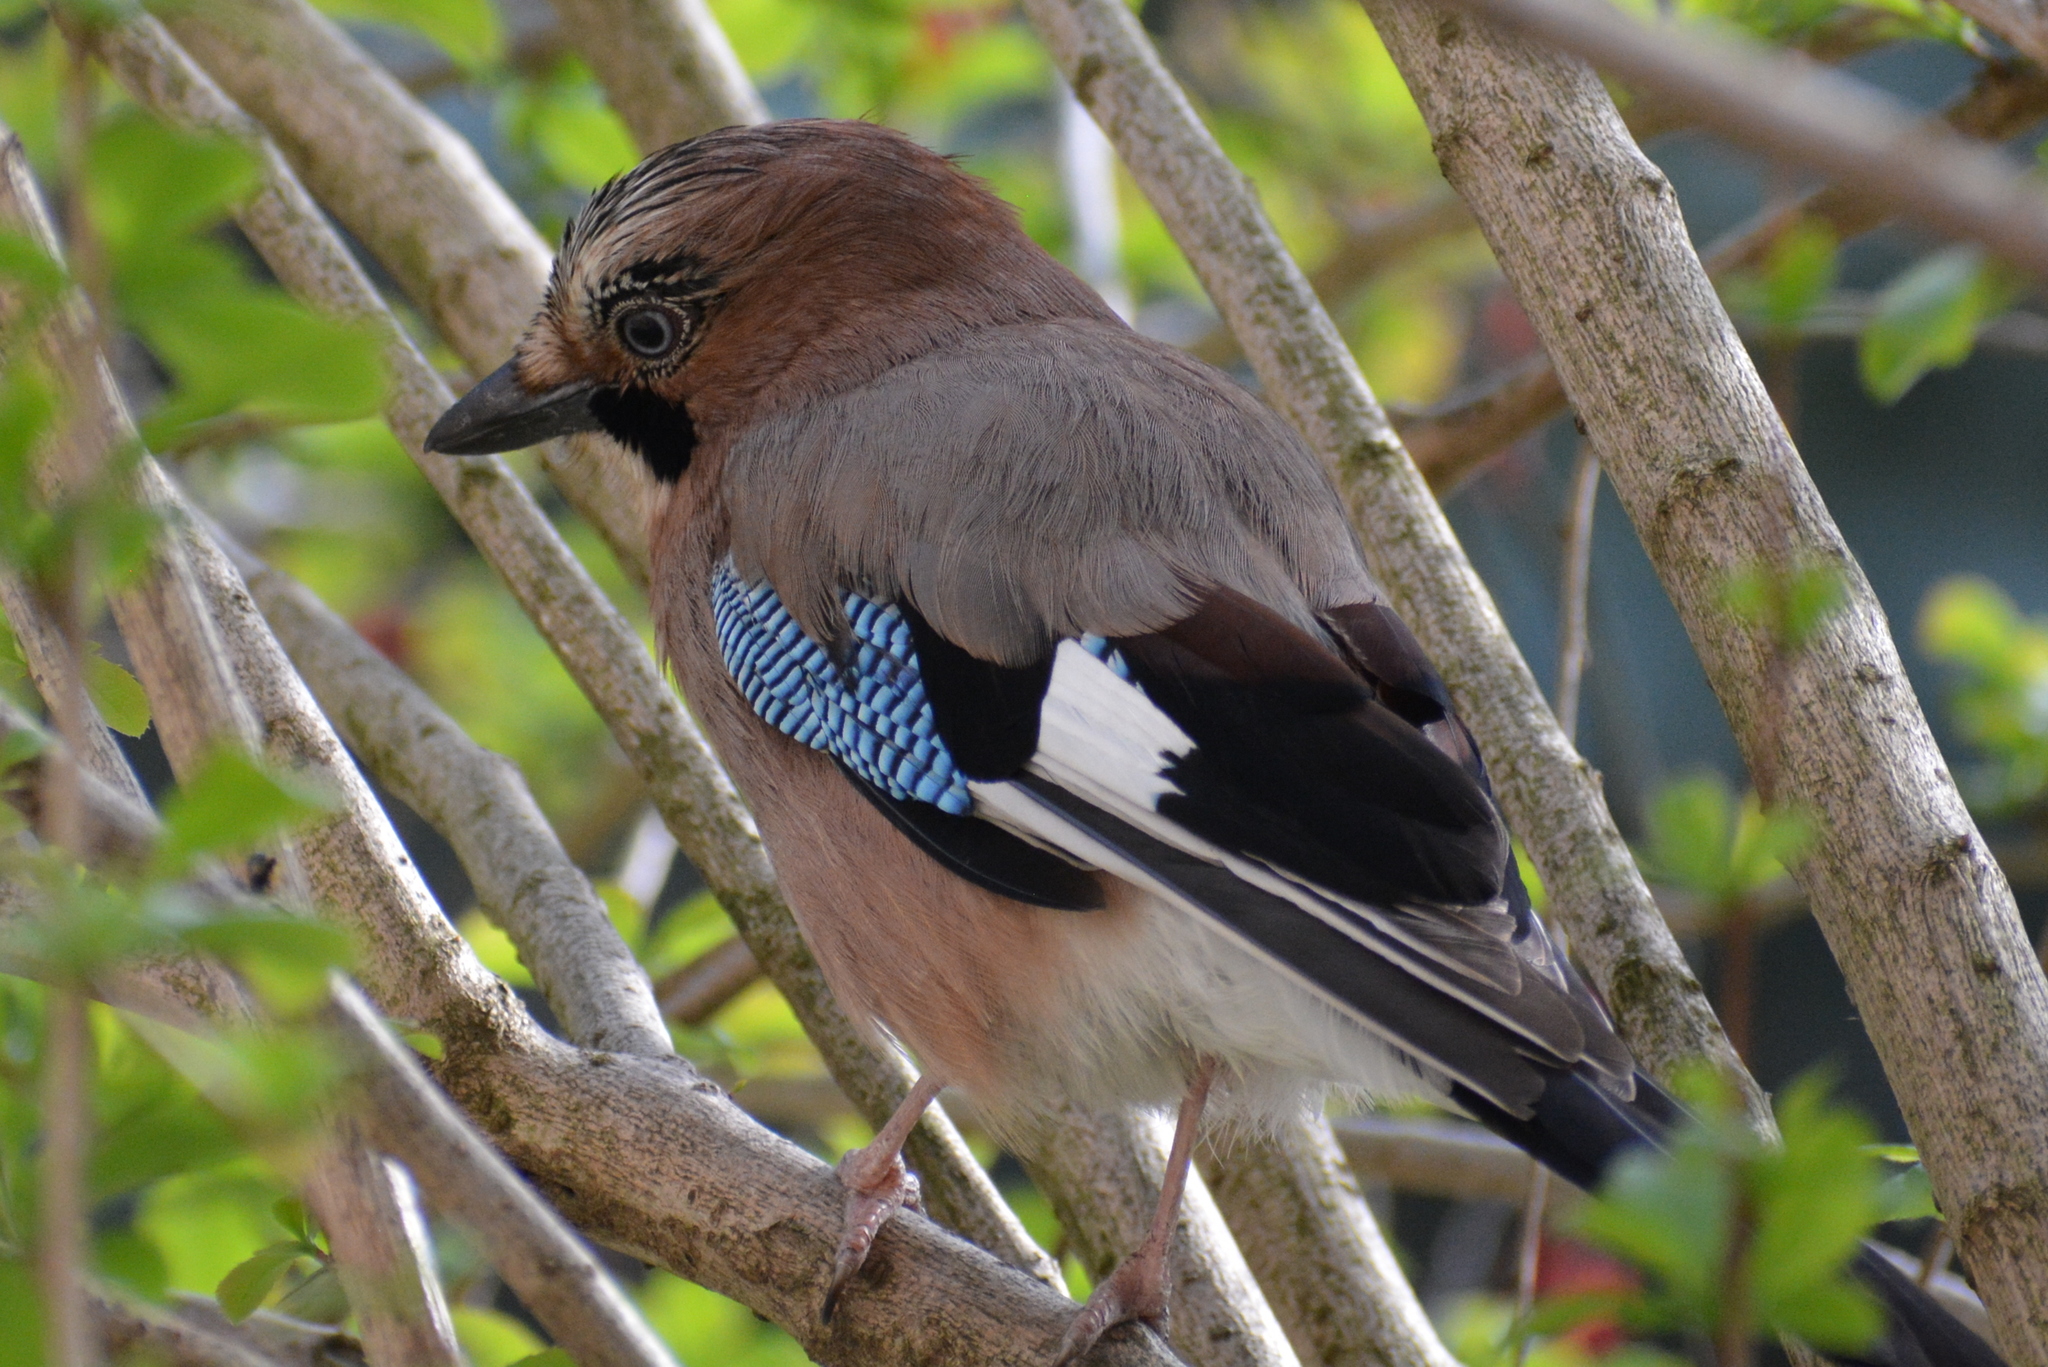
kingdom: Animalia
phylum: Chordata
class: Aves
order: Passeriformes
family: Corvidae
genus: Garrulus
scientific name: Garrulus glandarius
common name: Eurasian jay
